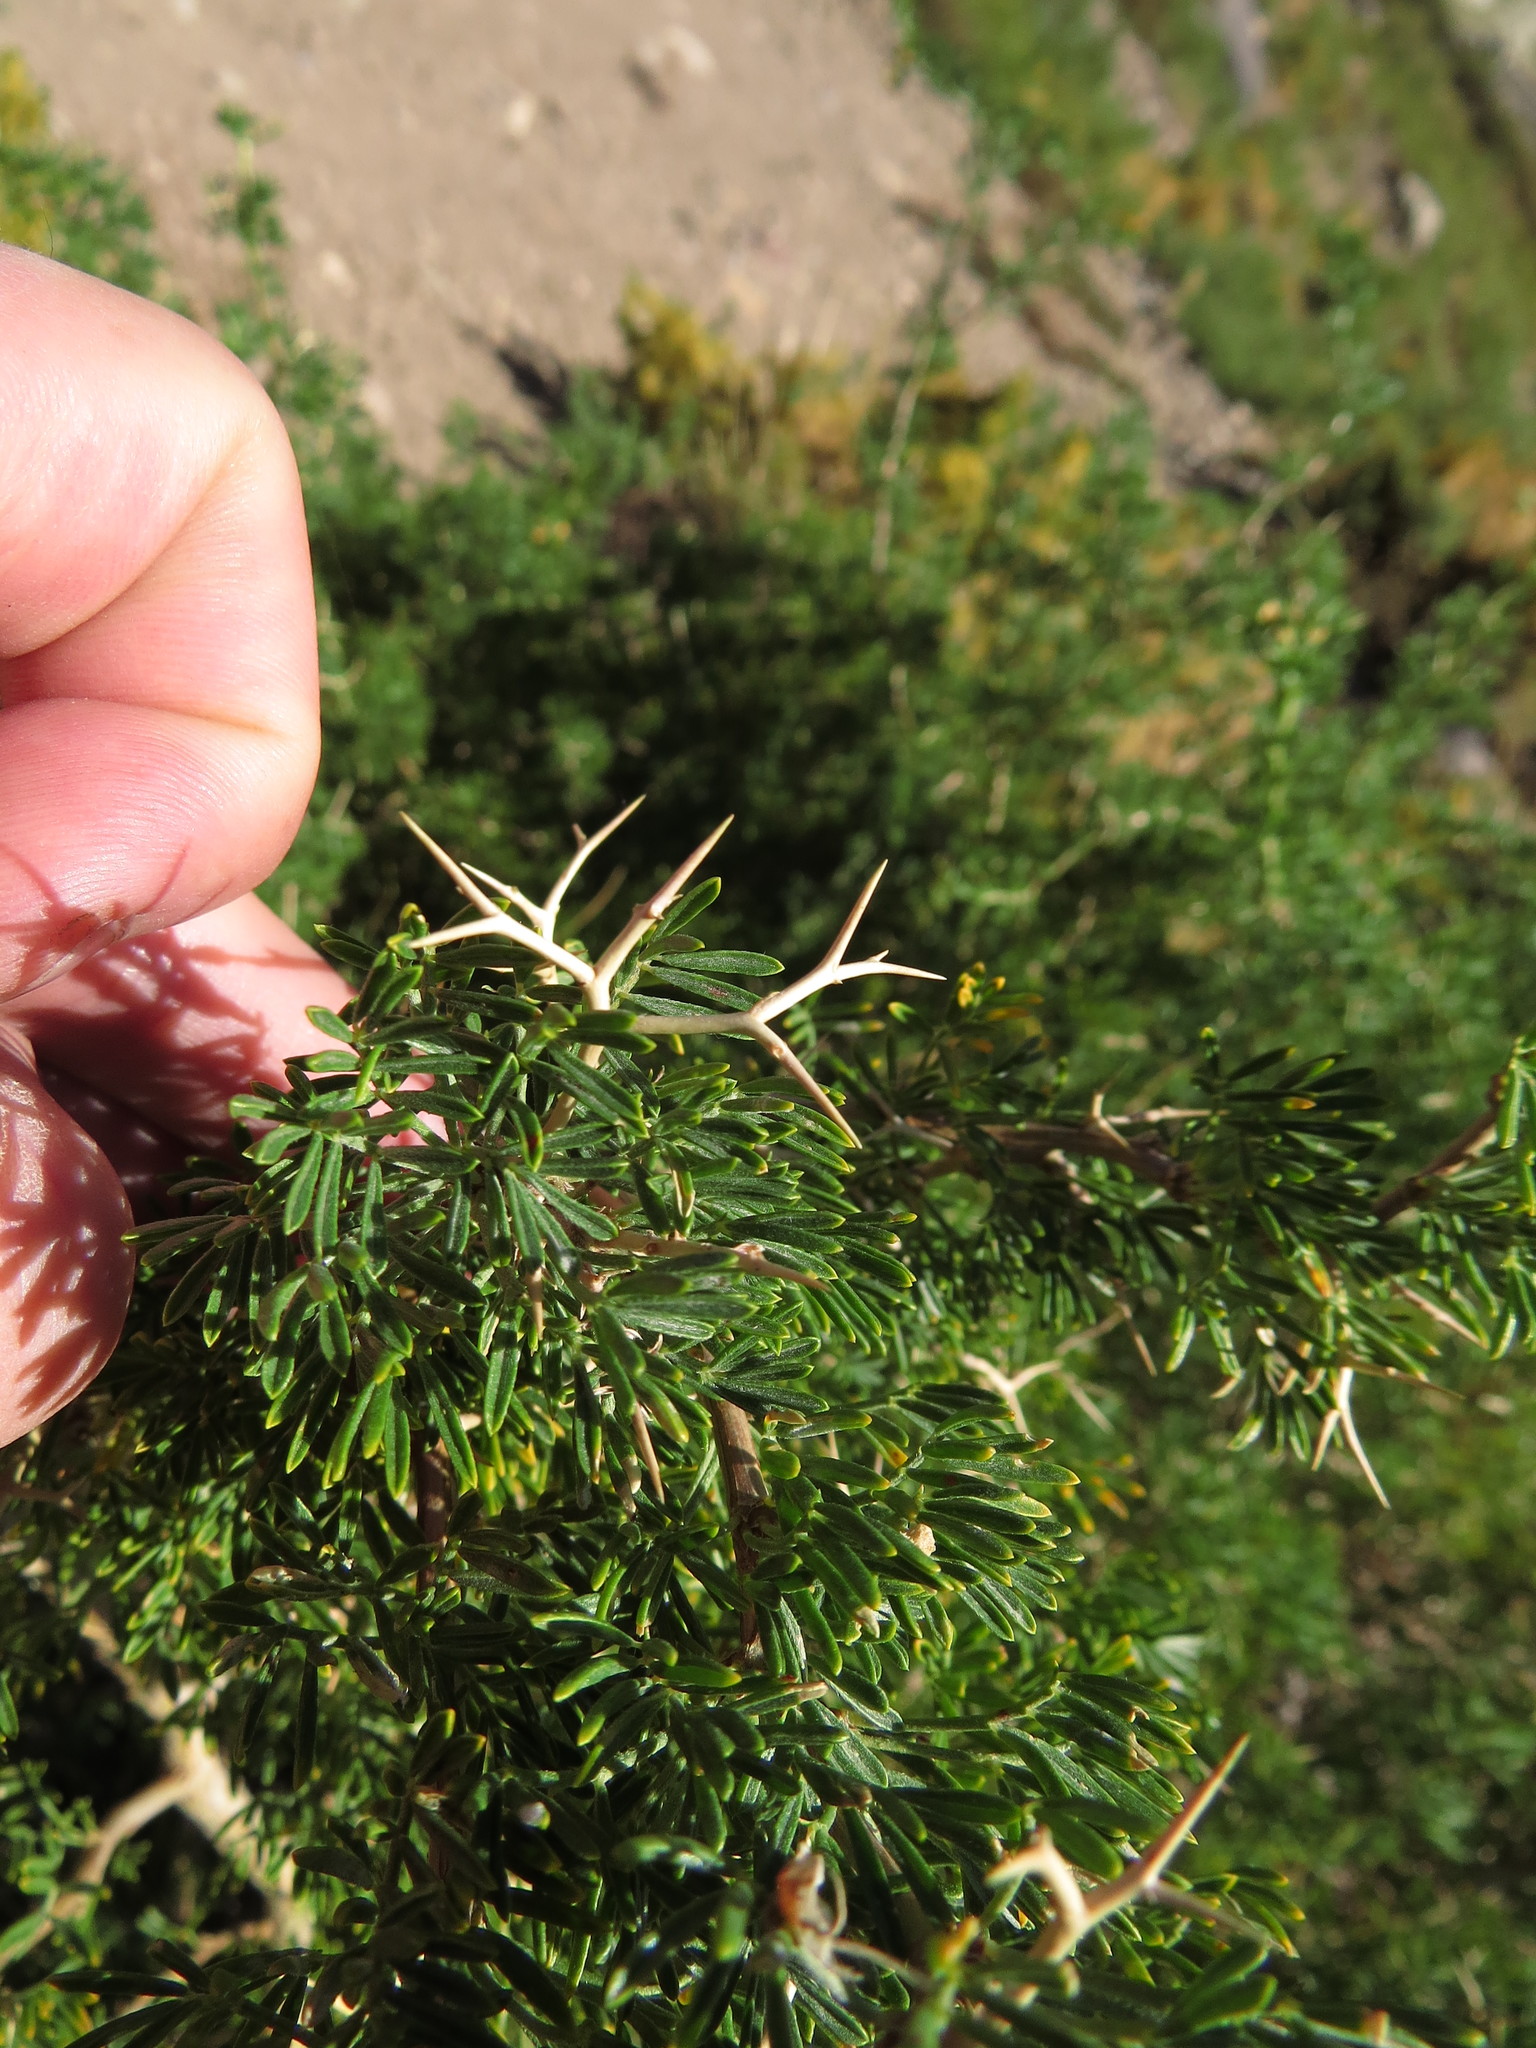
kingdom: Plantae
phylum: Tracheophyta
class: Magnoliopsida
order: Fabales
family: Fabaceae
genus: Adesmia
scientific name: Adesmia gracilis
